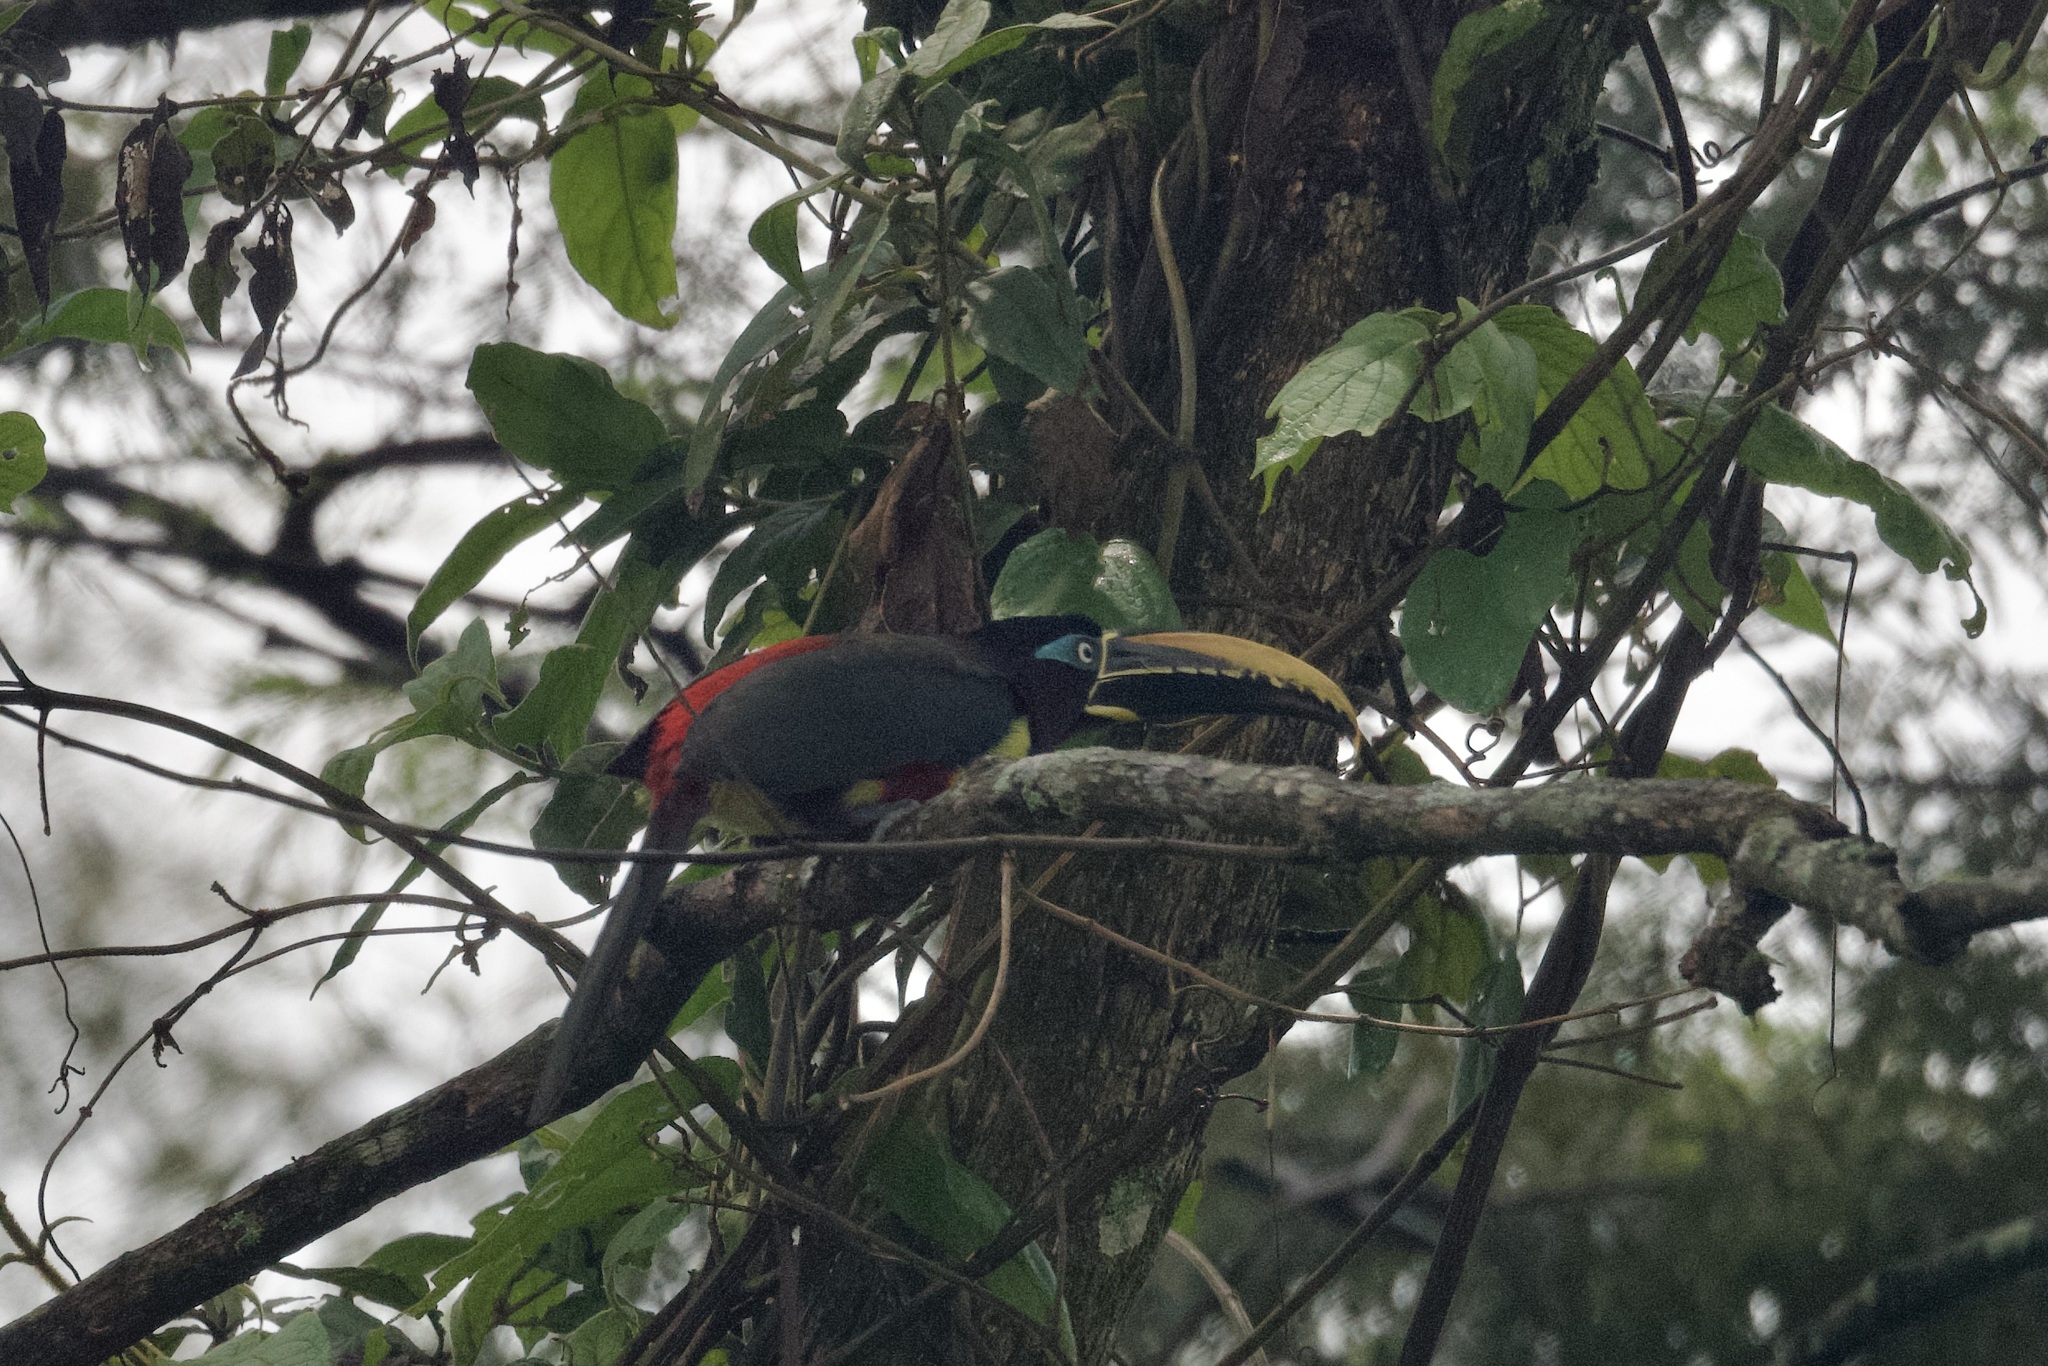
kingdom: Animalia
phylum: Chordata
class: Aves
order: Piciformes
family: Ramphastidae
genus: Pteroglossus
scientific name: Pteroglossus castanotis
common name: Chestnut-eared aracari
